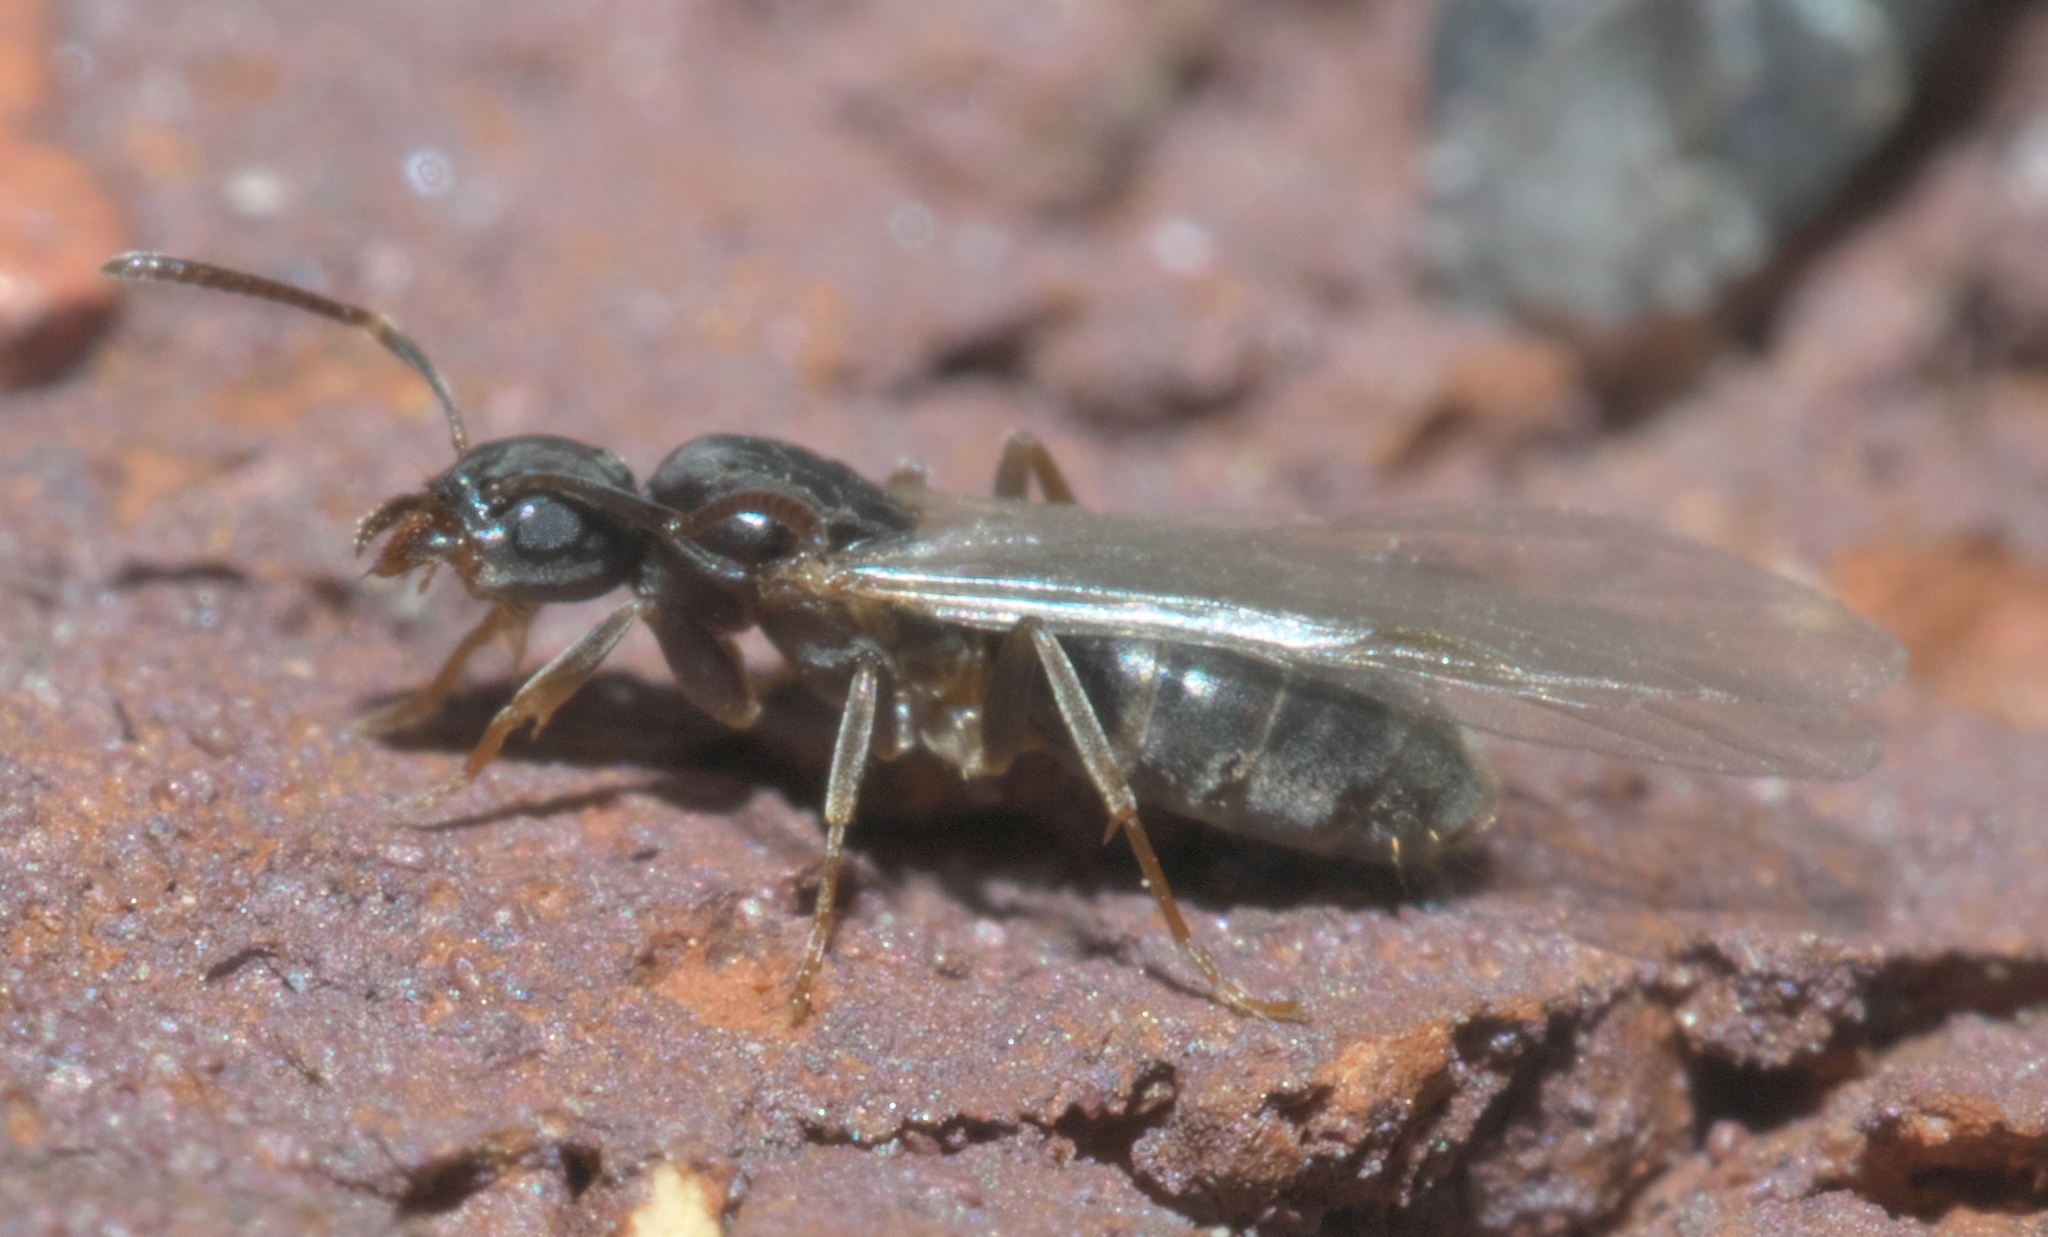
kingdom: Animalia
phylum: Arthropoda
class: Insecta
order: Hymenoptera
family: Formicidae
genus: Tapinoma
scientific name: Tapinoma sessile
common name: Odorous house ant
